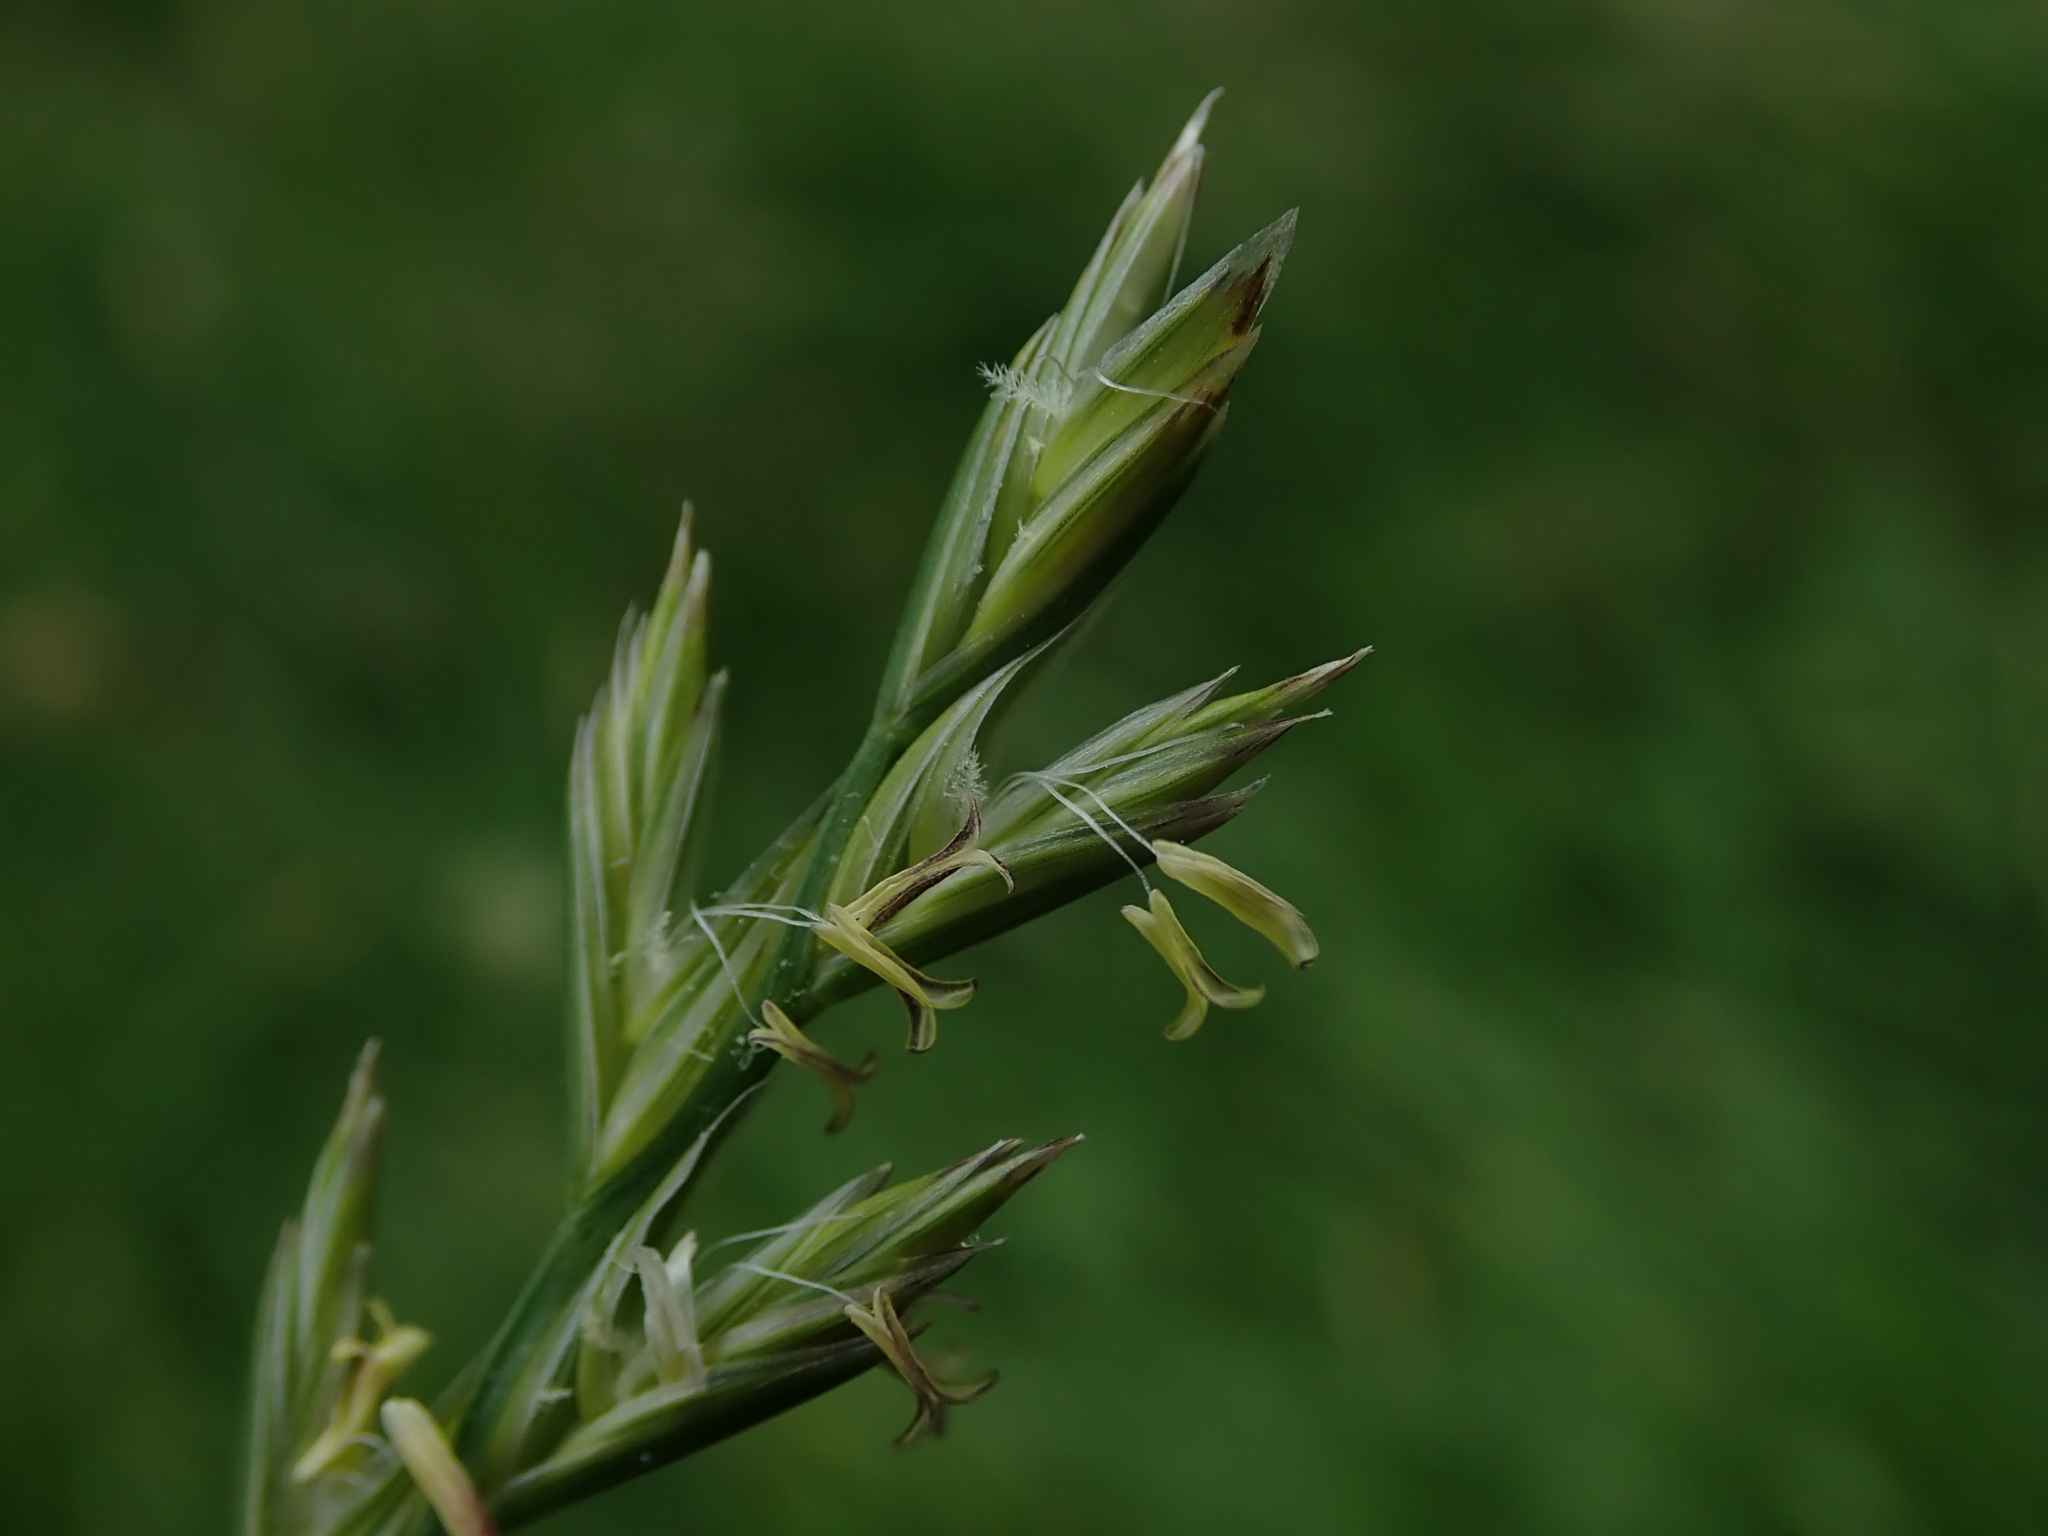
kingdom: Plantae
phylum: Tracheophyta
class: Liliopsida
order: Poales
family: Poaceae
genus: Lolium
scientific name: Lolium perenne
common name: Perennial ryegrass
